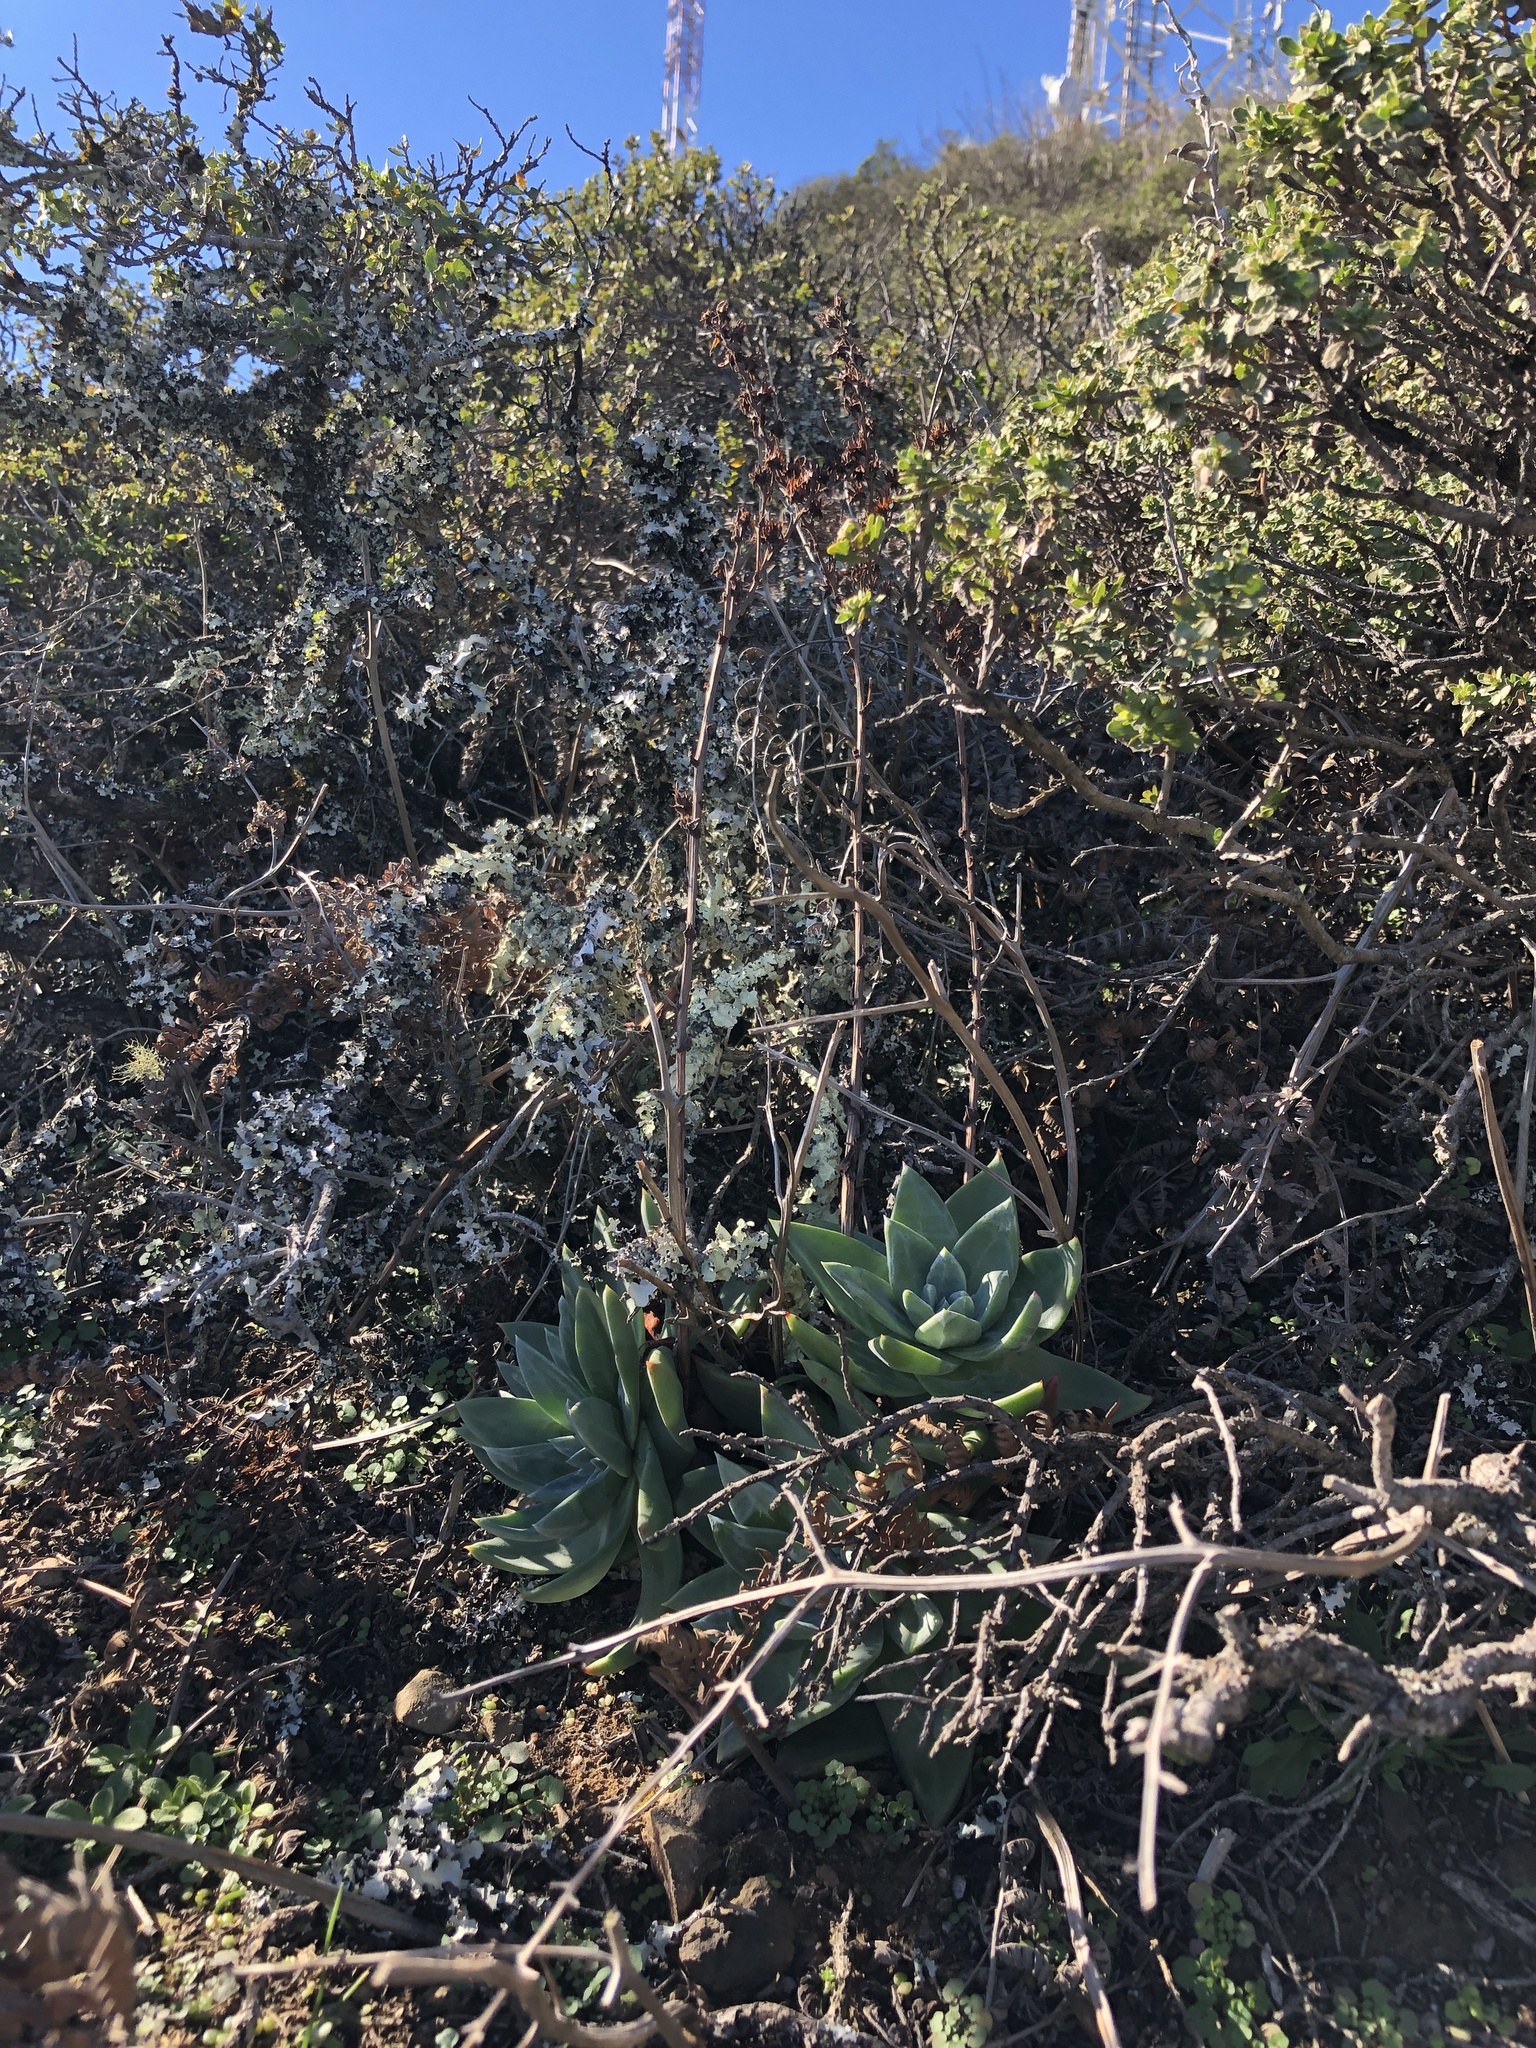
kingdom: Plantae
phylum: Tracheophyta
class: Magnoliopsida
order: Saxifragales
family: Crassulaceae
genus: Dudleya
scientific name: Dudleya farinosa
